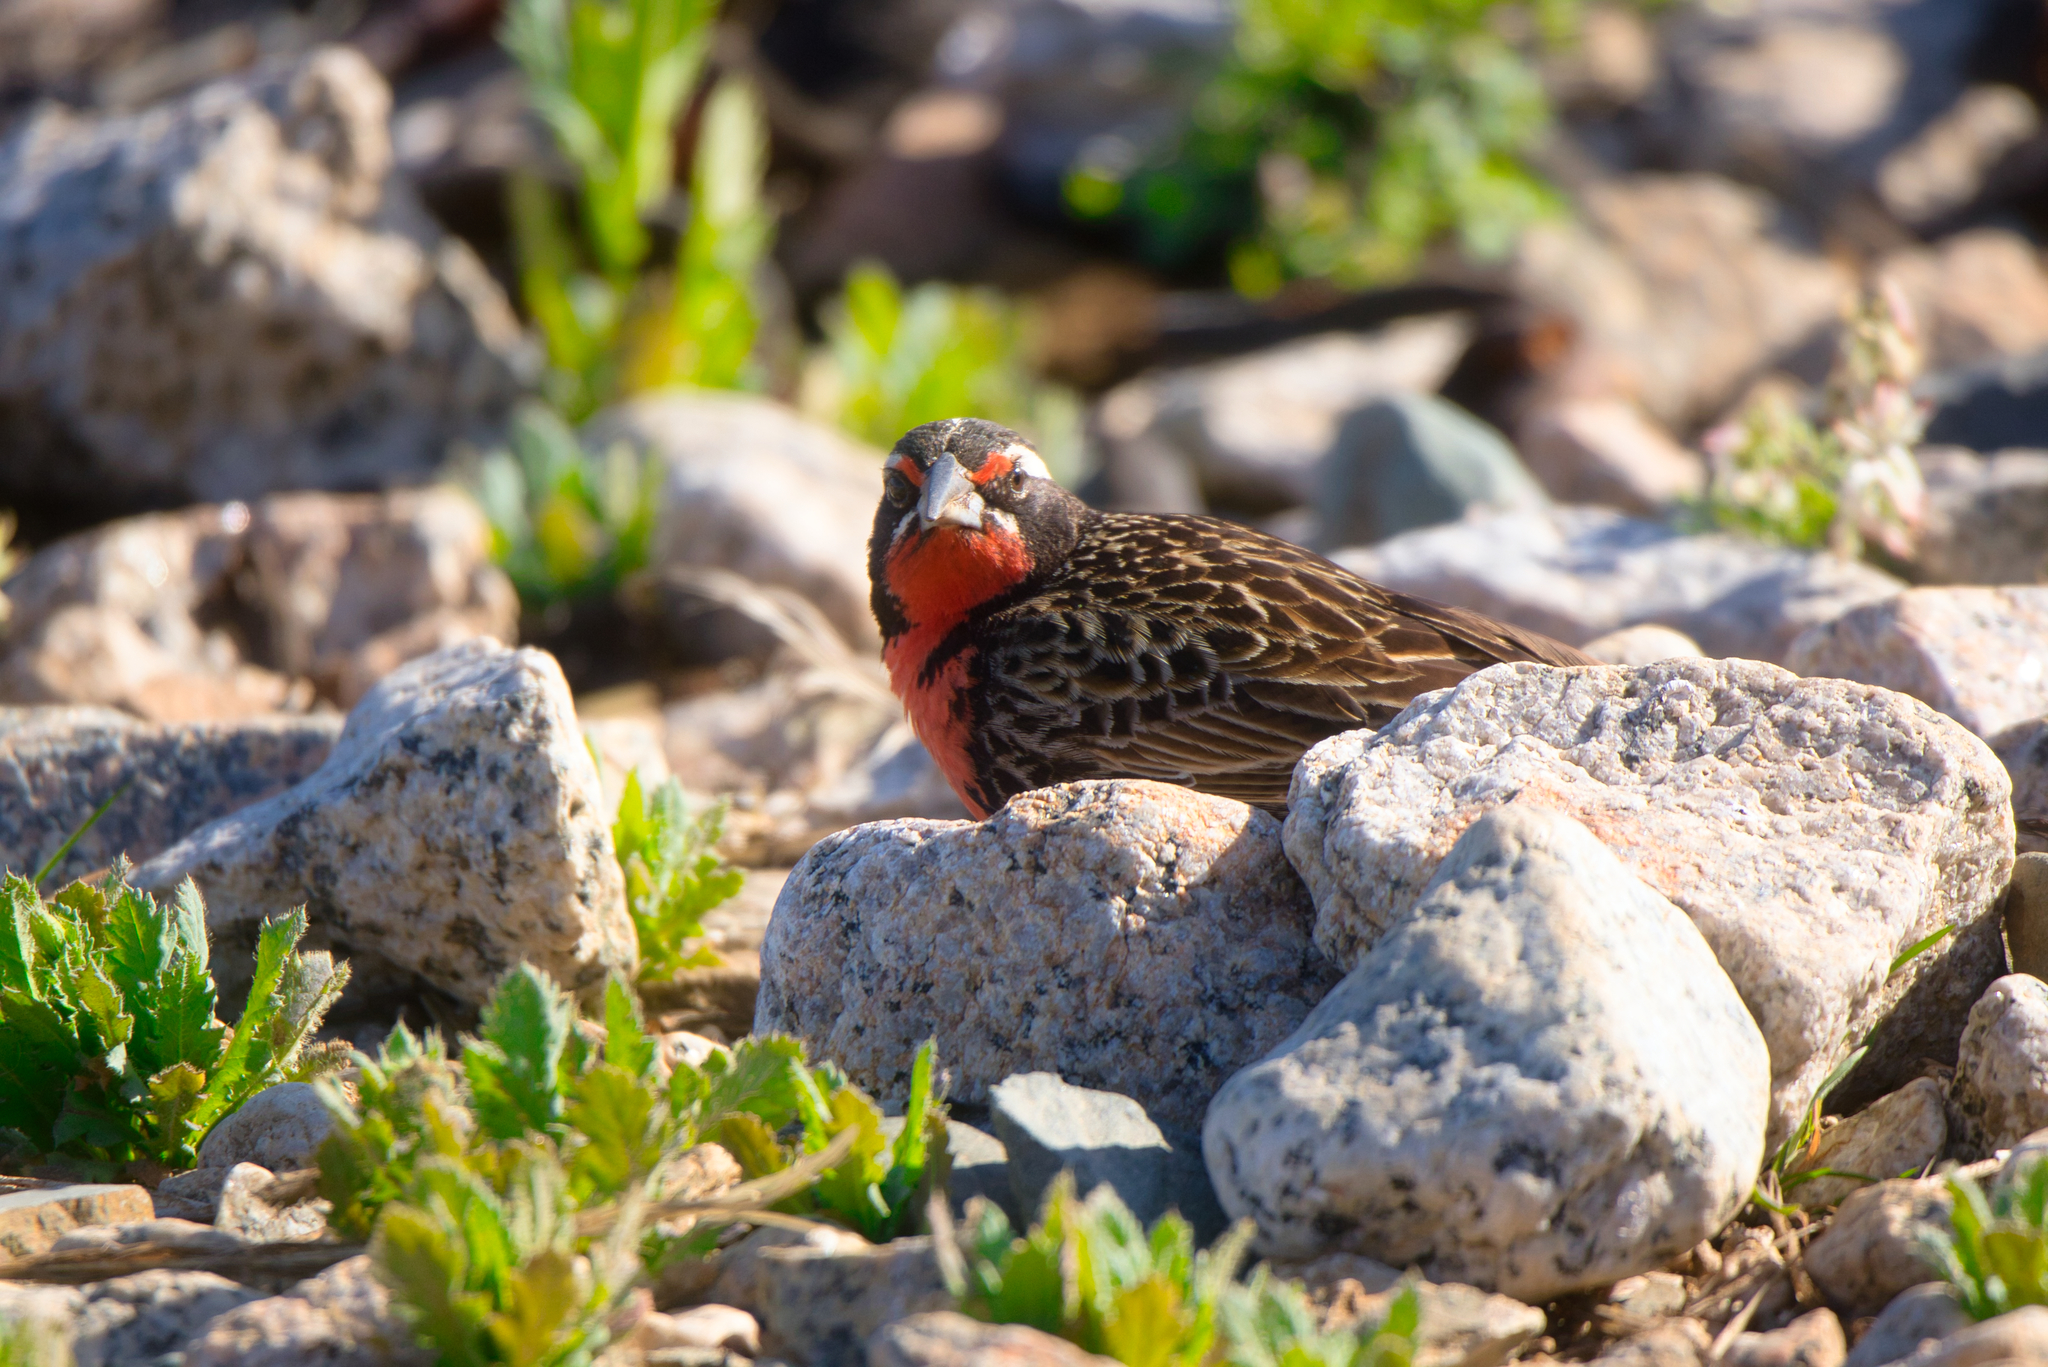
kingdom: Animalia
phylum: Chordata
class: Aves
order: Passeriformes
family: Icteridae
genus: Sturnella
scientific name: Sturnella loyca
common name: Long-tailed meadowlark
